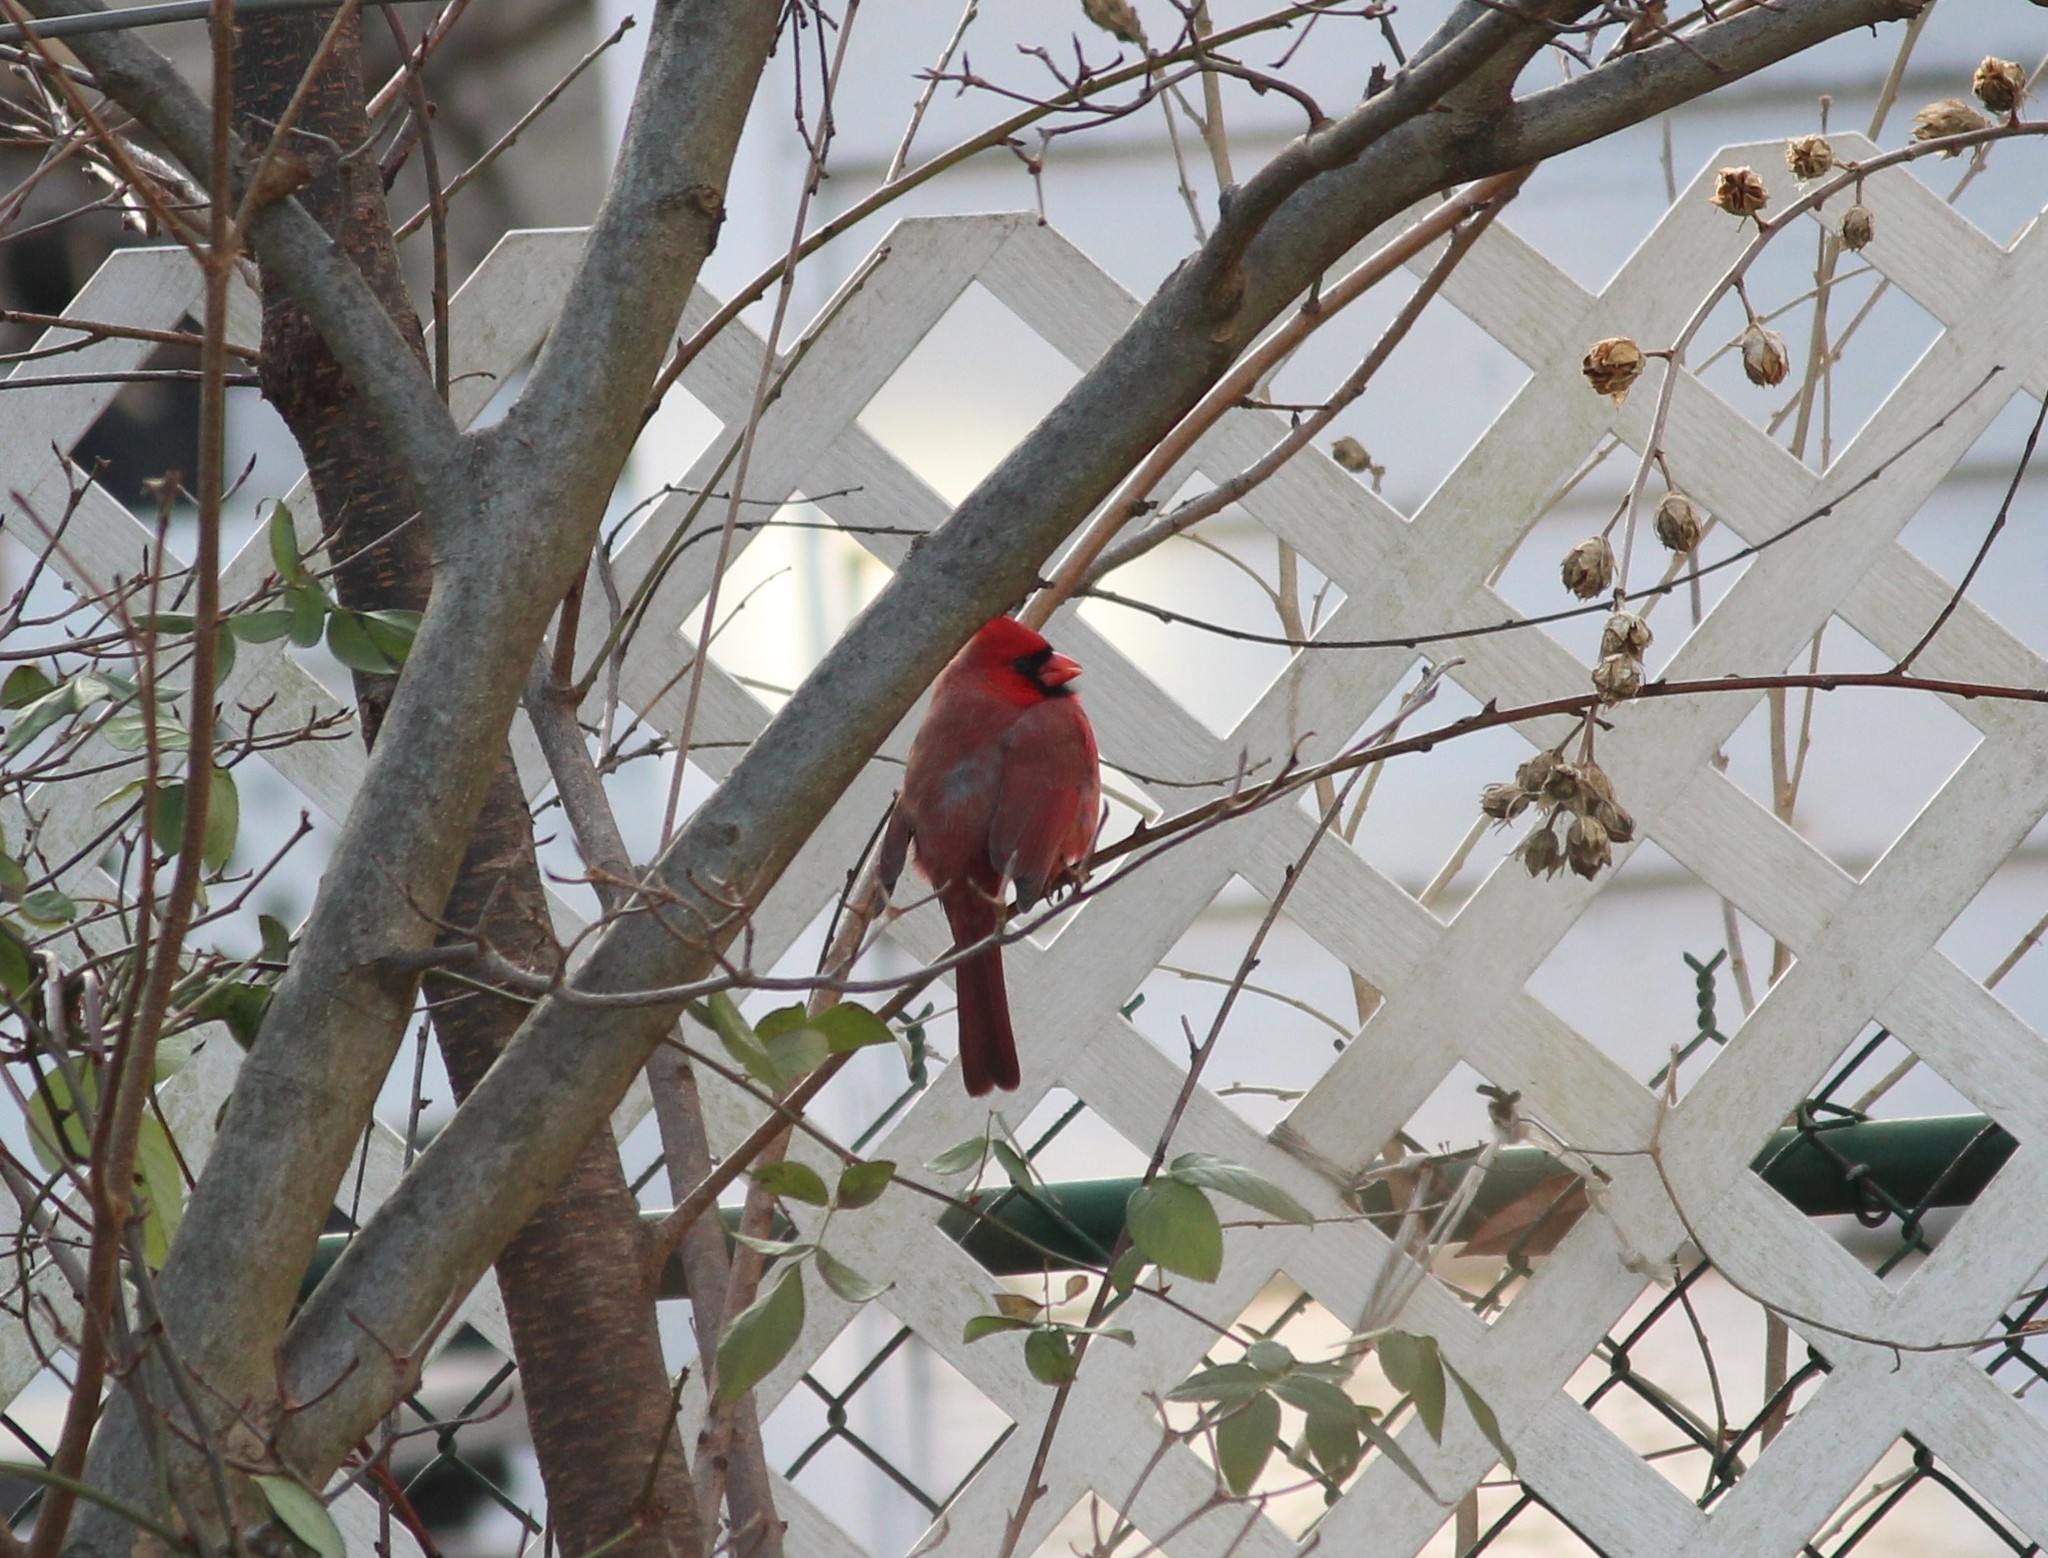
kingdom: Animalia
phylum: Chordata
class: Aves
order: Passeriformes
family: Cardinalidae
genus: Cardinalis
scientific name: Cardinalis cardinalis
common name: Northern cardinal
